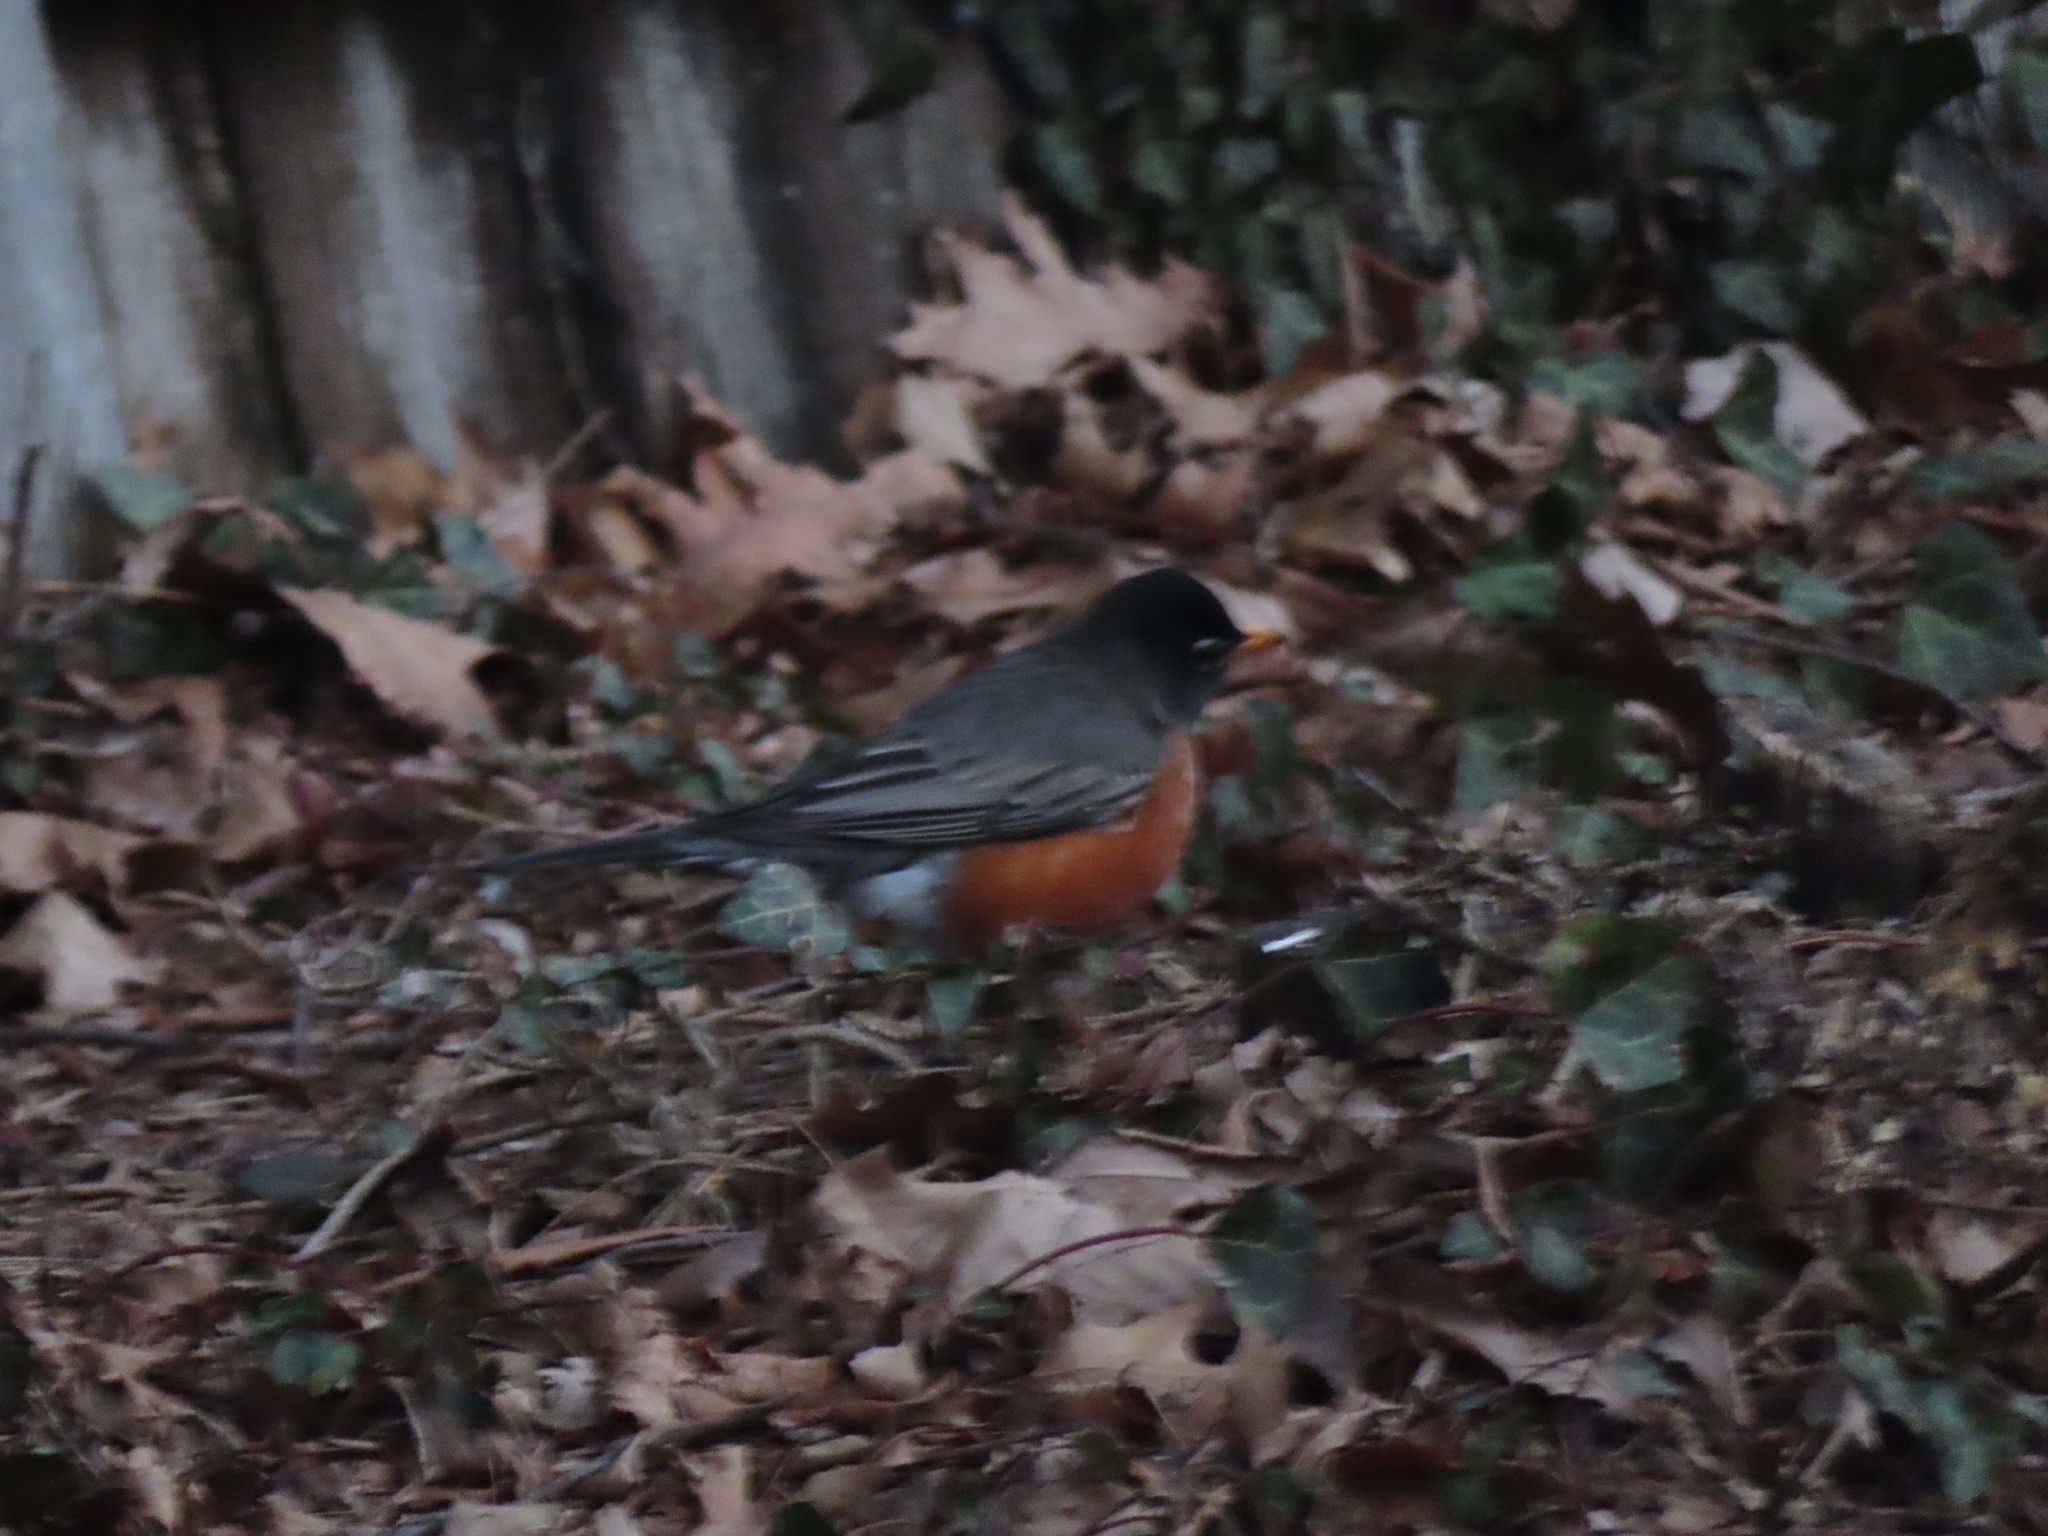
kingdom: Animalia
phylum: Chordata
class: Aves
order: Passeriformes
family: Turdidae
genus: Turdus
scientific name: Turdus migratorius
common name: American robin
